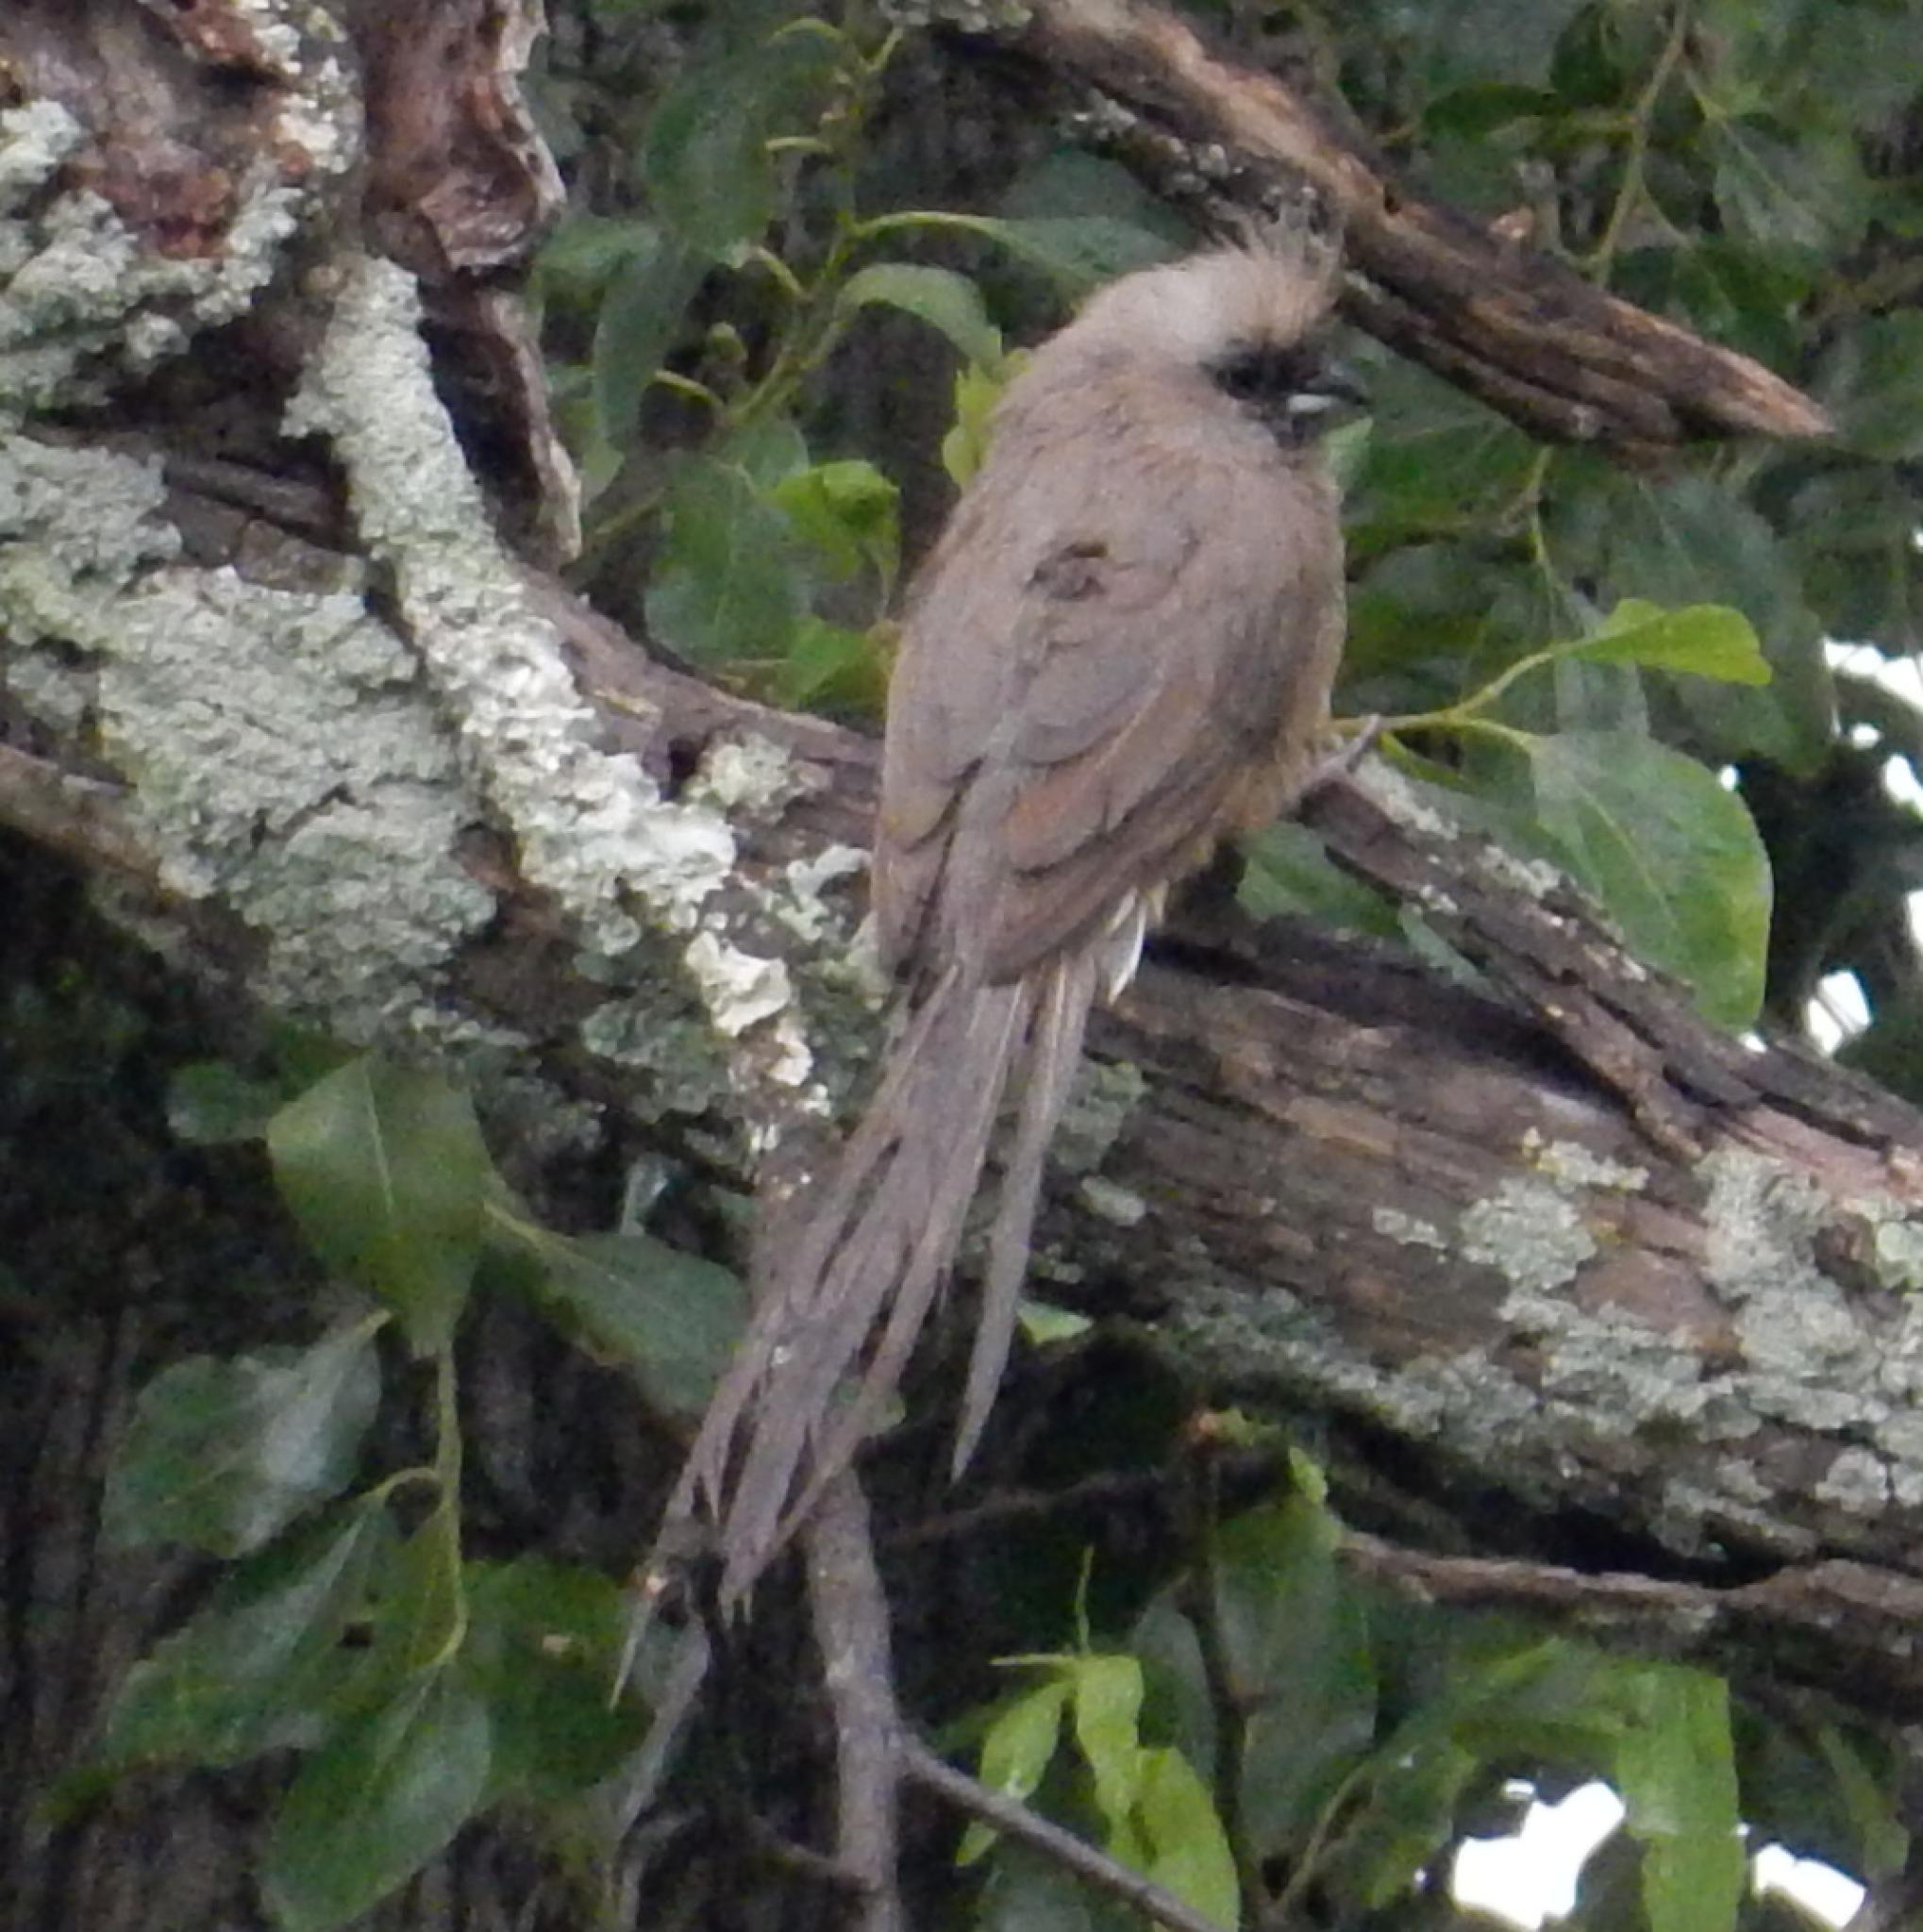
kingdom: Animalia
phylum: Chordata
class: Aves
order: Coliiformes
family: Coliidae
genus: Colius
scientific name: Colius striatus
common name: Speckled mousebird
